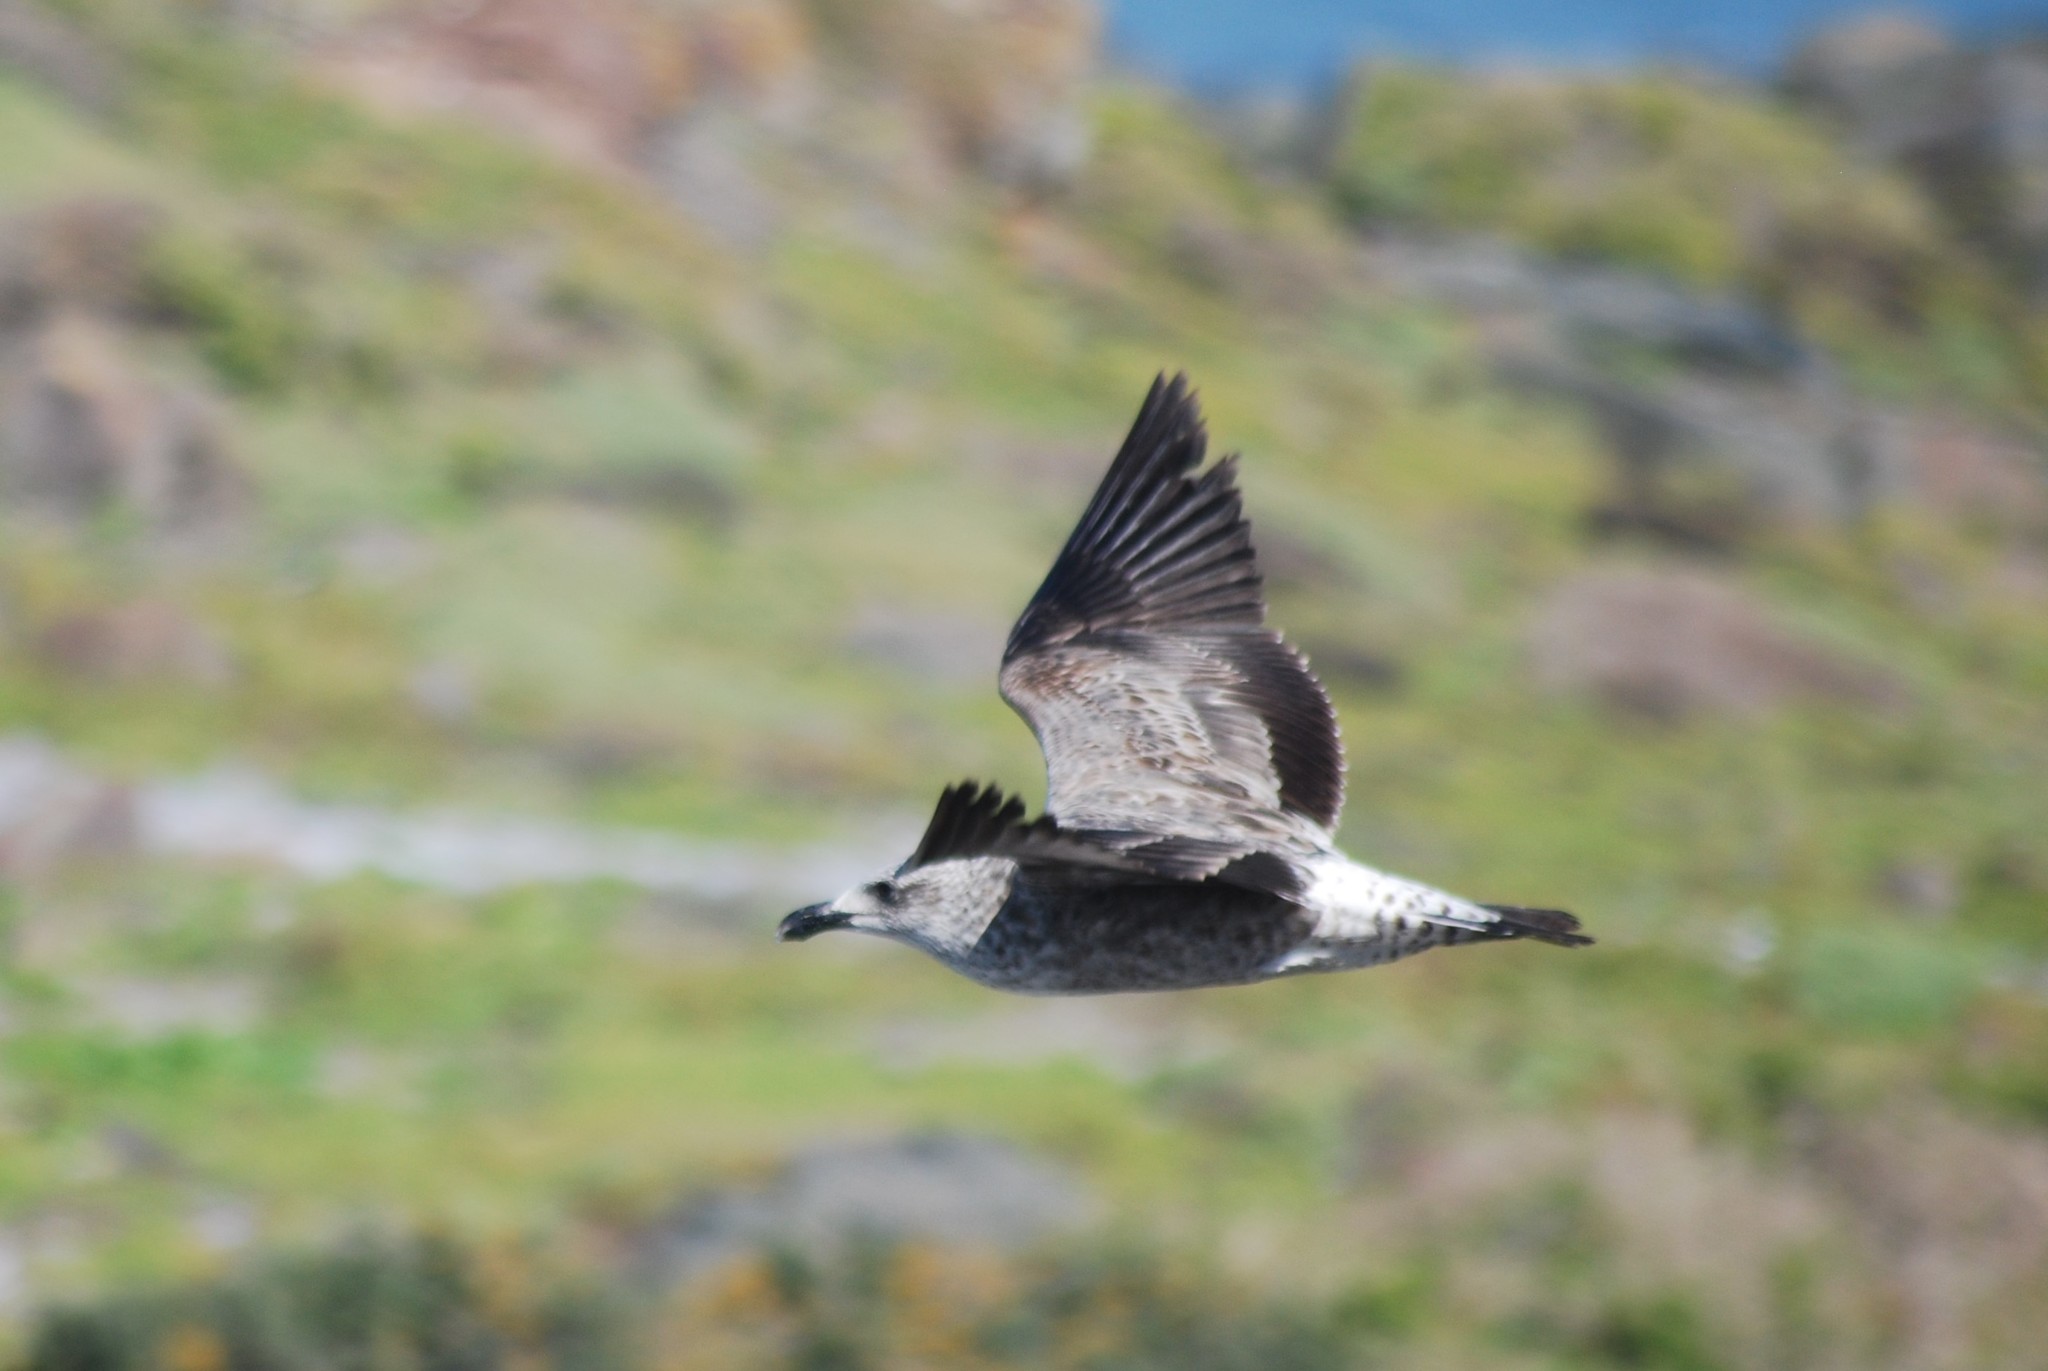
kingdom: Animalia
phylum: Chordata
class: Aves
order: Charadriiformes
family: Laridae
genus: Larus
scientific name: Larus dominicanus
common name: Kelp gull
